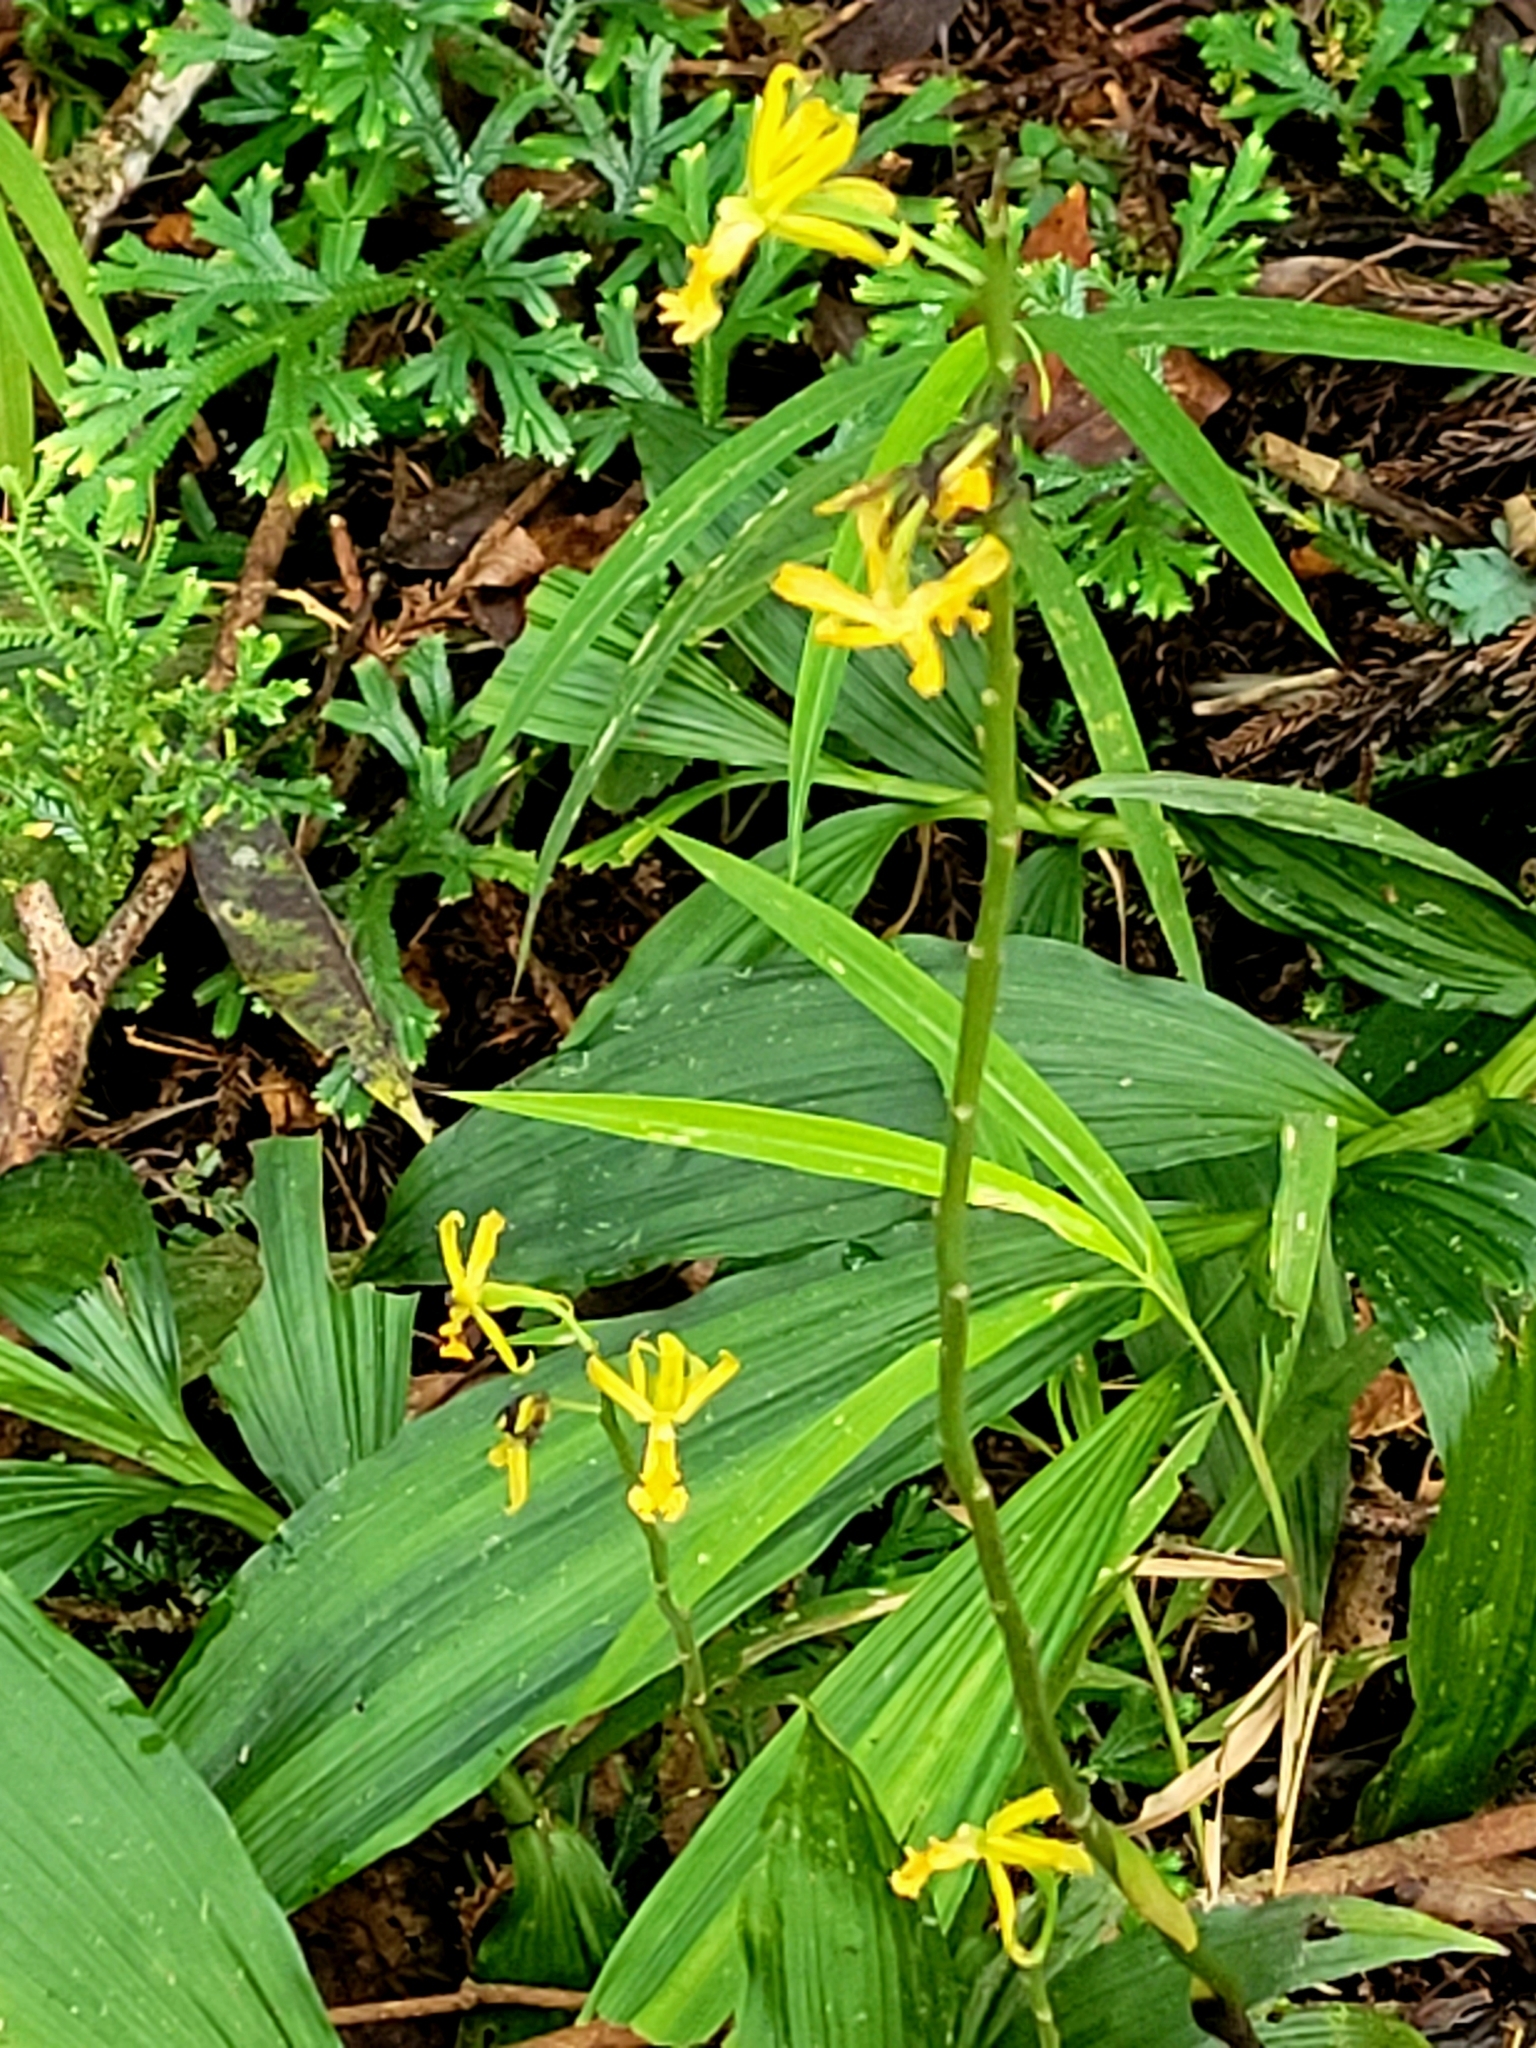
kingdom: Plantae
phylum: Tracheophyta
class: Liliopsida
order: Asparagales
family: Orchidaceae
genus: Calanthe
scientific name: Calanthe obcordata
